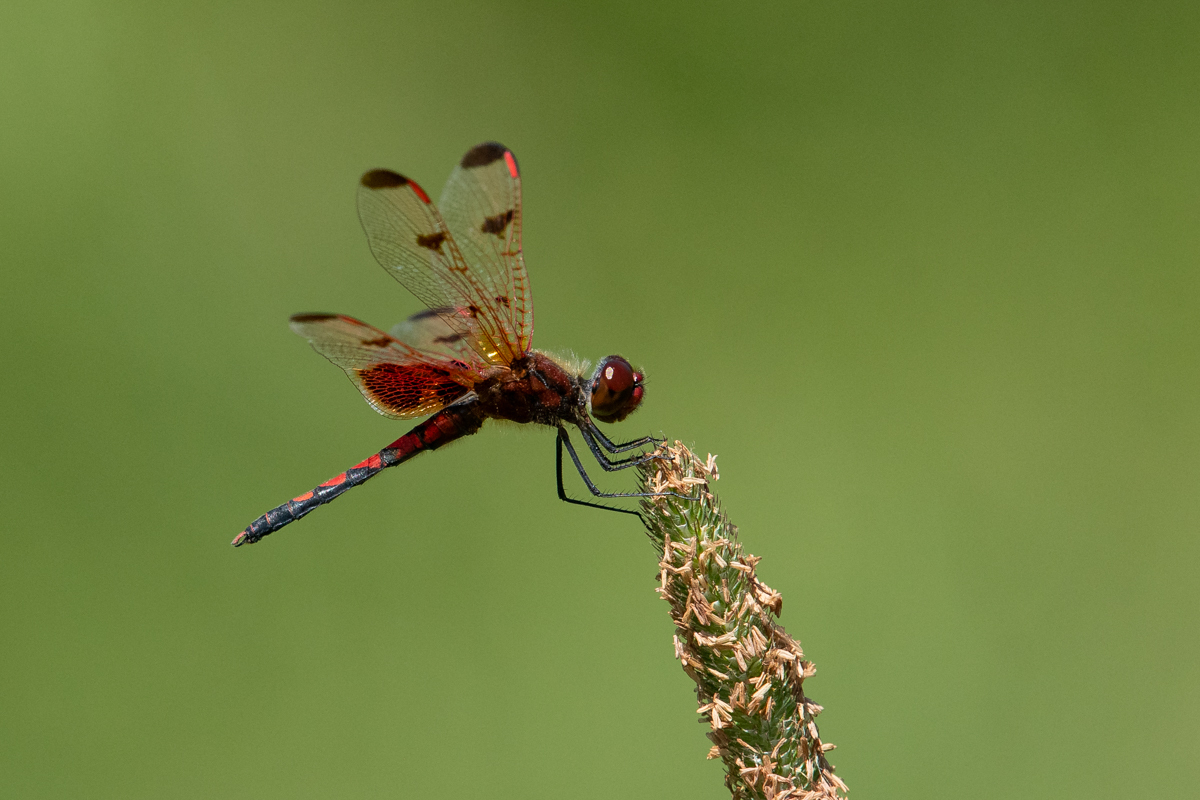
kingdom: Animalia
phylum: Arthropoda
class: Insecta
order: Odonata
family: Libellulidae
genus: Celithemis
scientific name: Celithemis elisa
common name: Calico pennant
